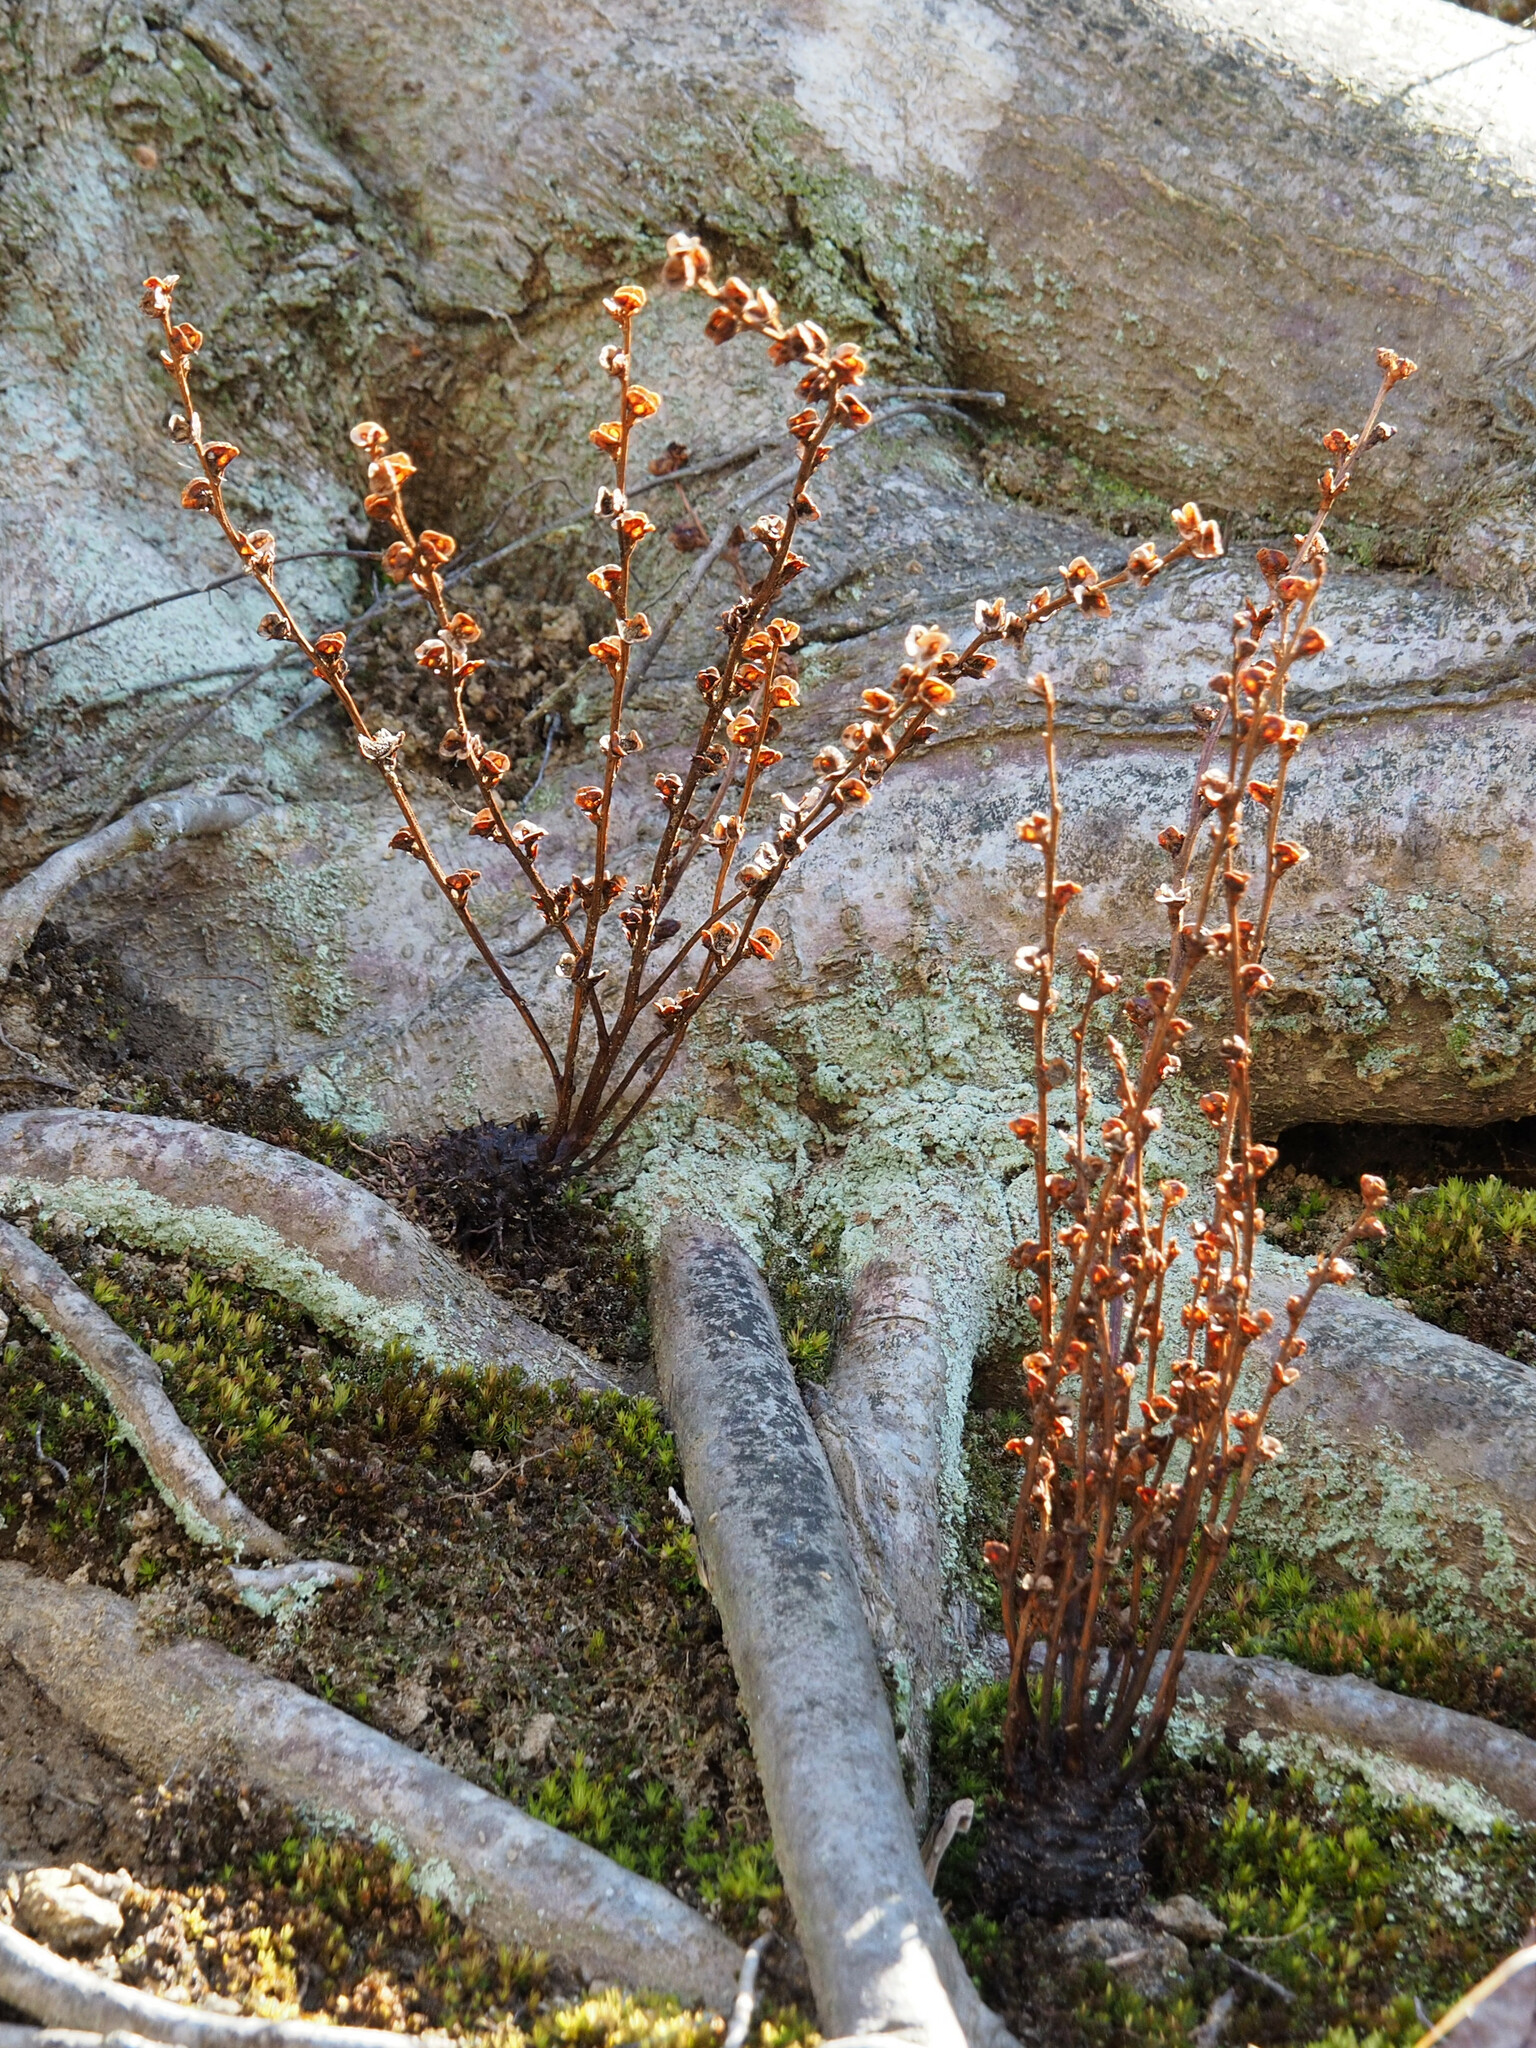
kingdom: Plantae
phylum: Tracheophyta
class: Magnoliopsida
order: Lamiales
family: Orobanchaceae
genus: Epifagus
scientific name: Epifagus virginiana
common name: Beechdrops
